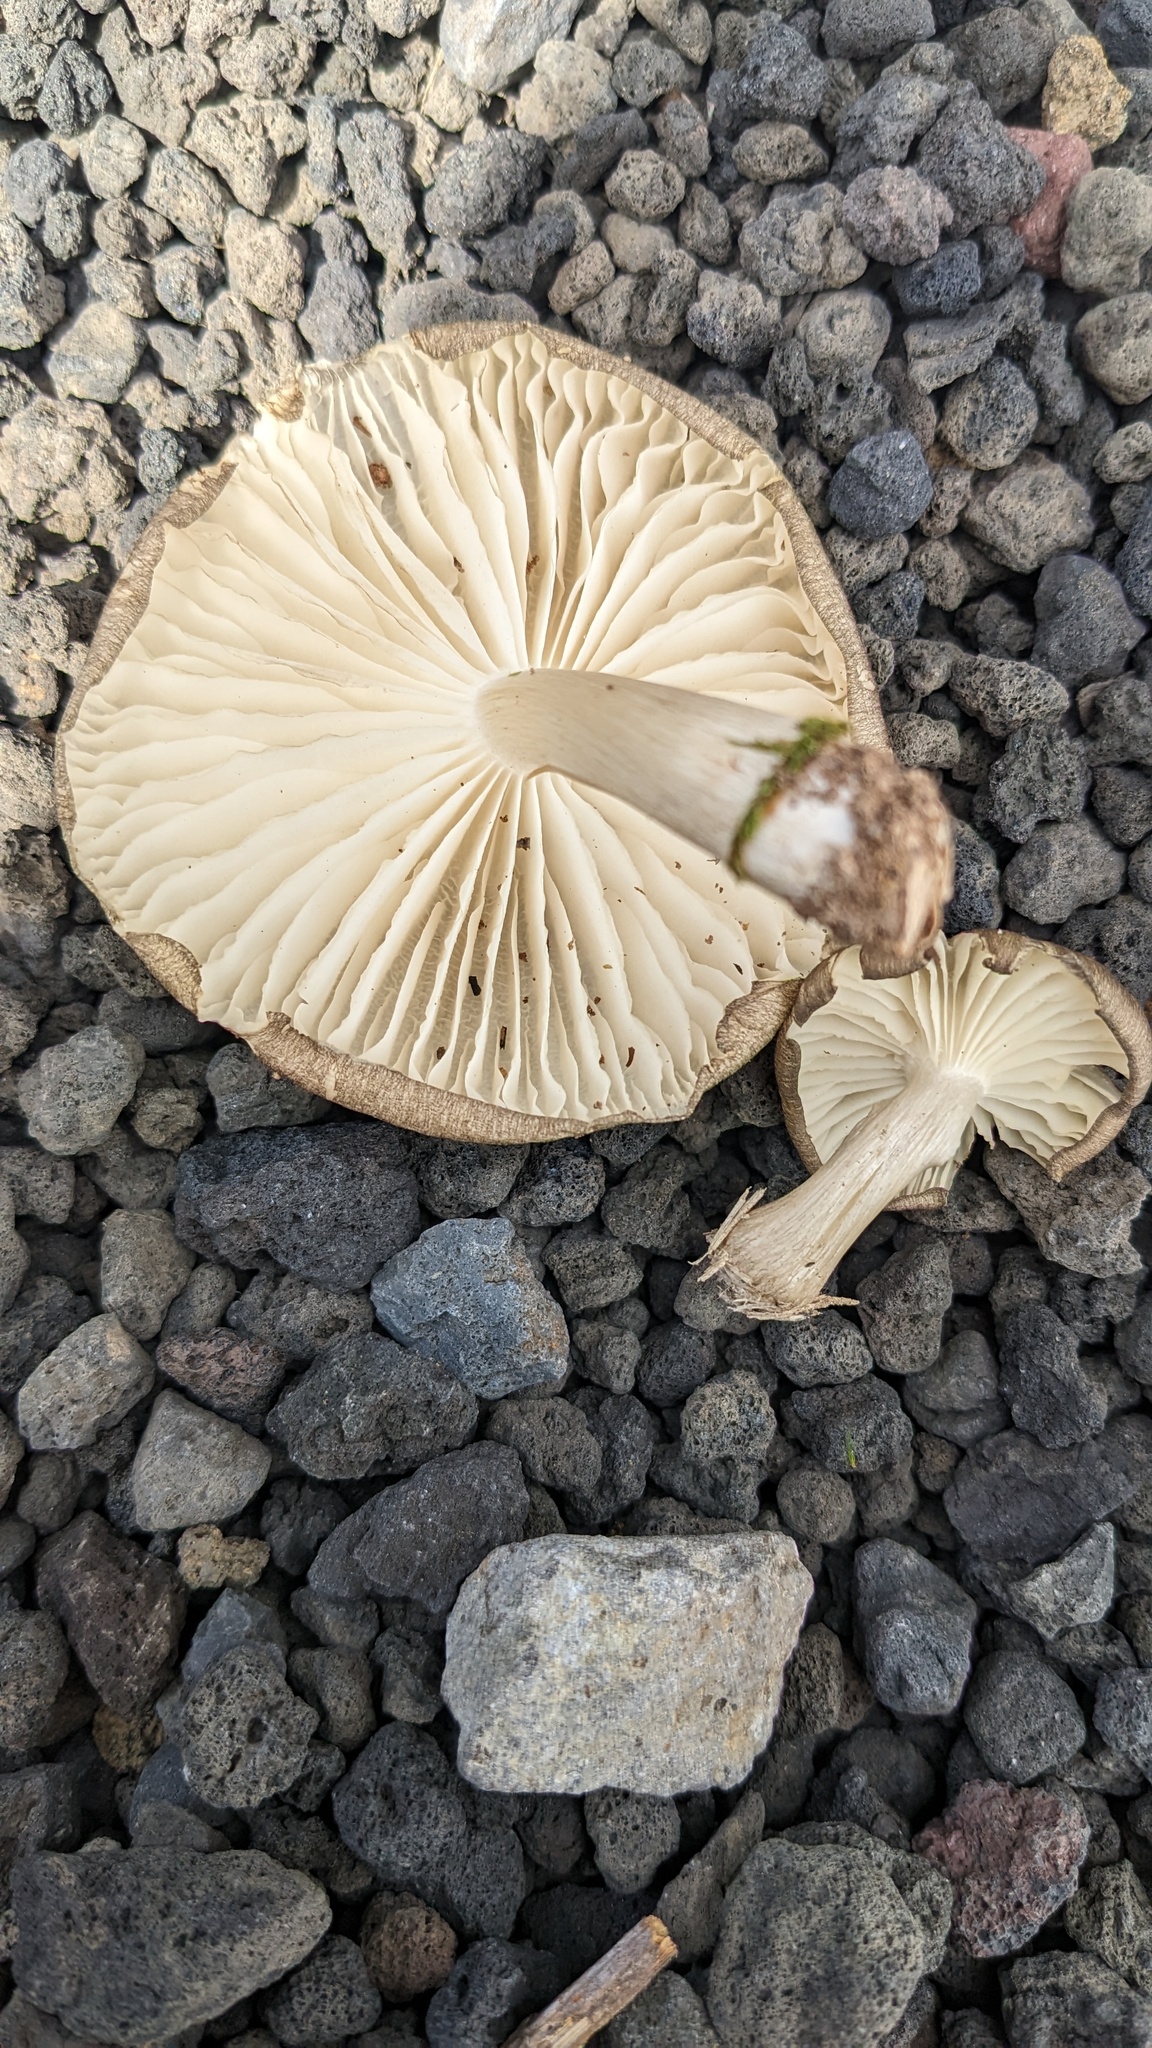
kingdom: Fungi
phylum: Basidiomycota
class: Agaricomycetes
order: Agaricales
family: Tricholomataceae
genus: Megacollybia
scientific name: Megacollybia clitocyboidea
